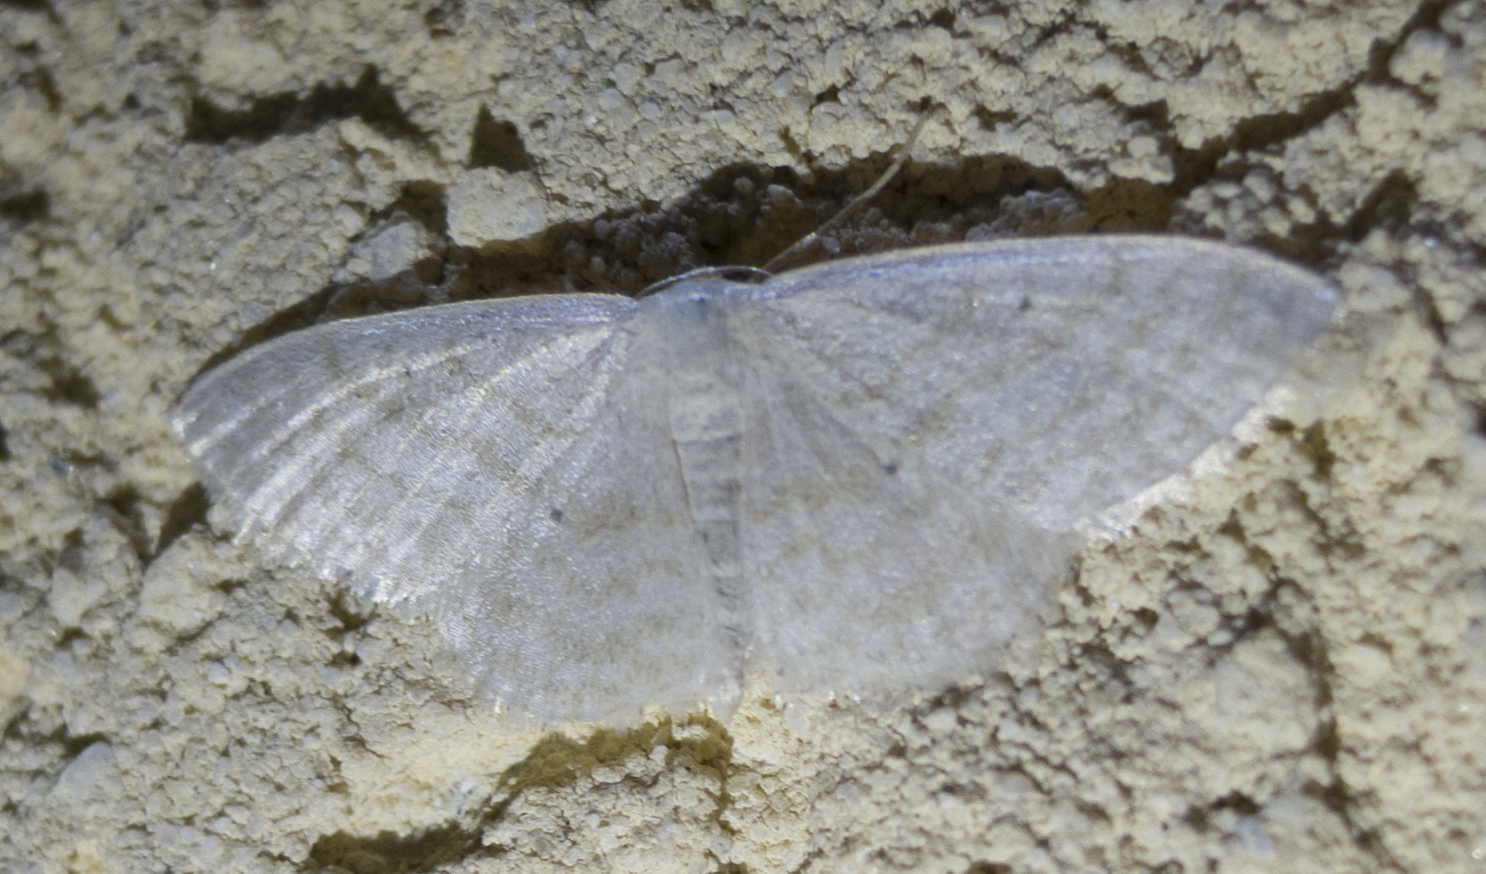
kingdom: Animalia
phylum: Arthropoda
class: Insecta
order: Lepidoptera
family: Geometridae
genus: Idaea
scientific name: Idaea subsericeata
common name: Satin wave
